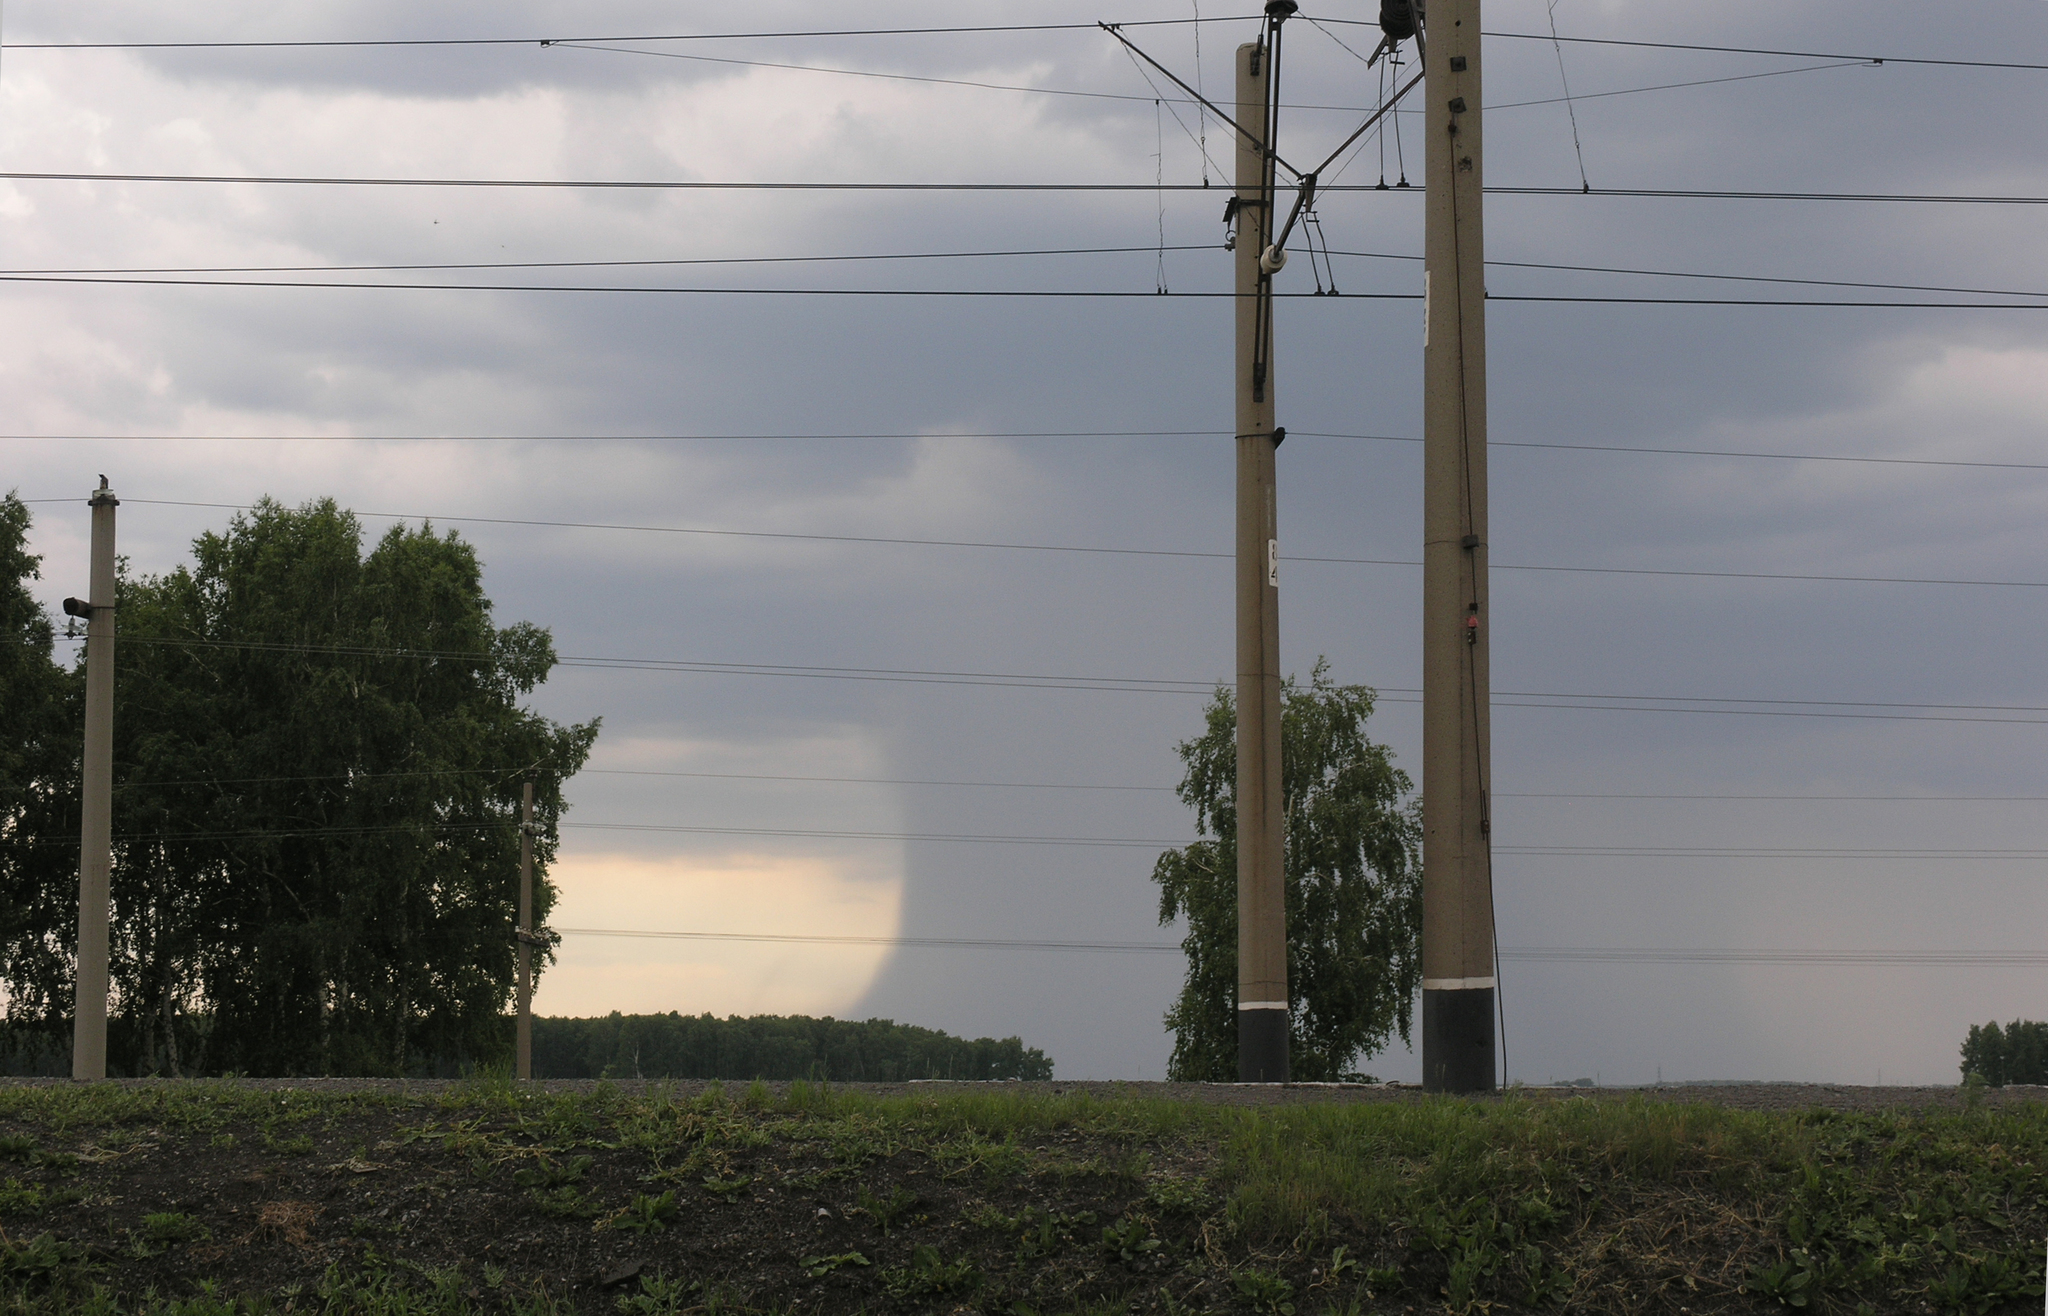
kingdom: Plantae
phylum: Tracheophyta
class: Magnoliopsida
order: Fagales
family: Betulaceae
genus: Betula
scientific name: Betula pendula
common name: Silver birch
